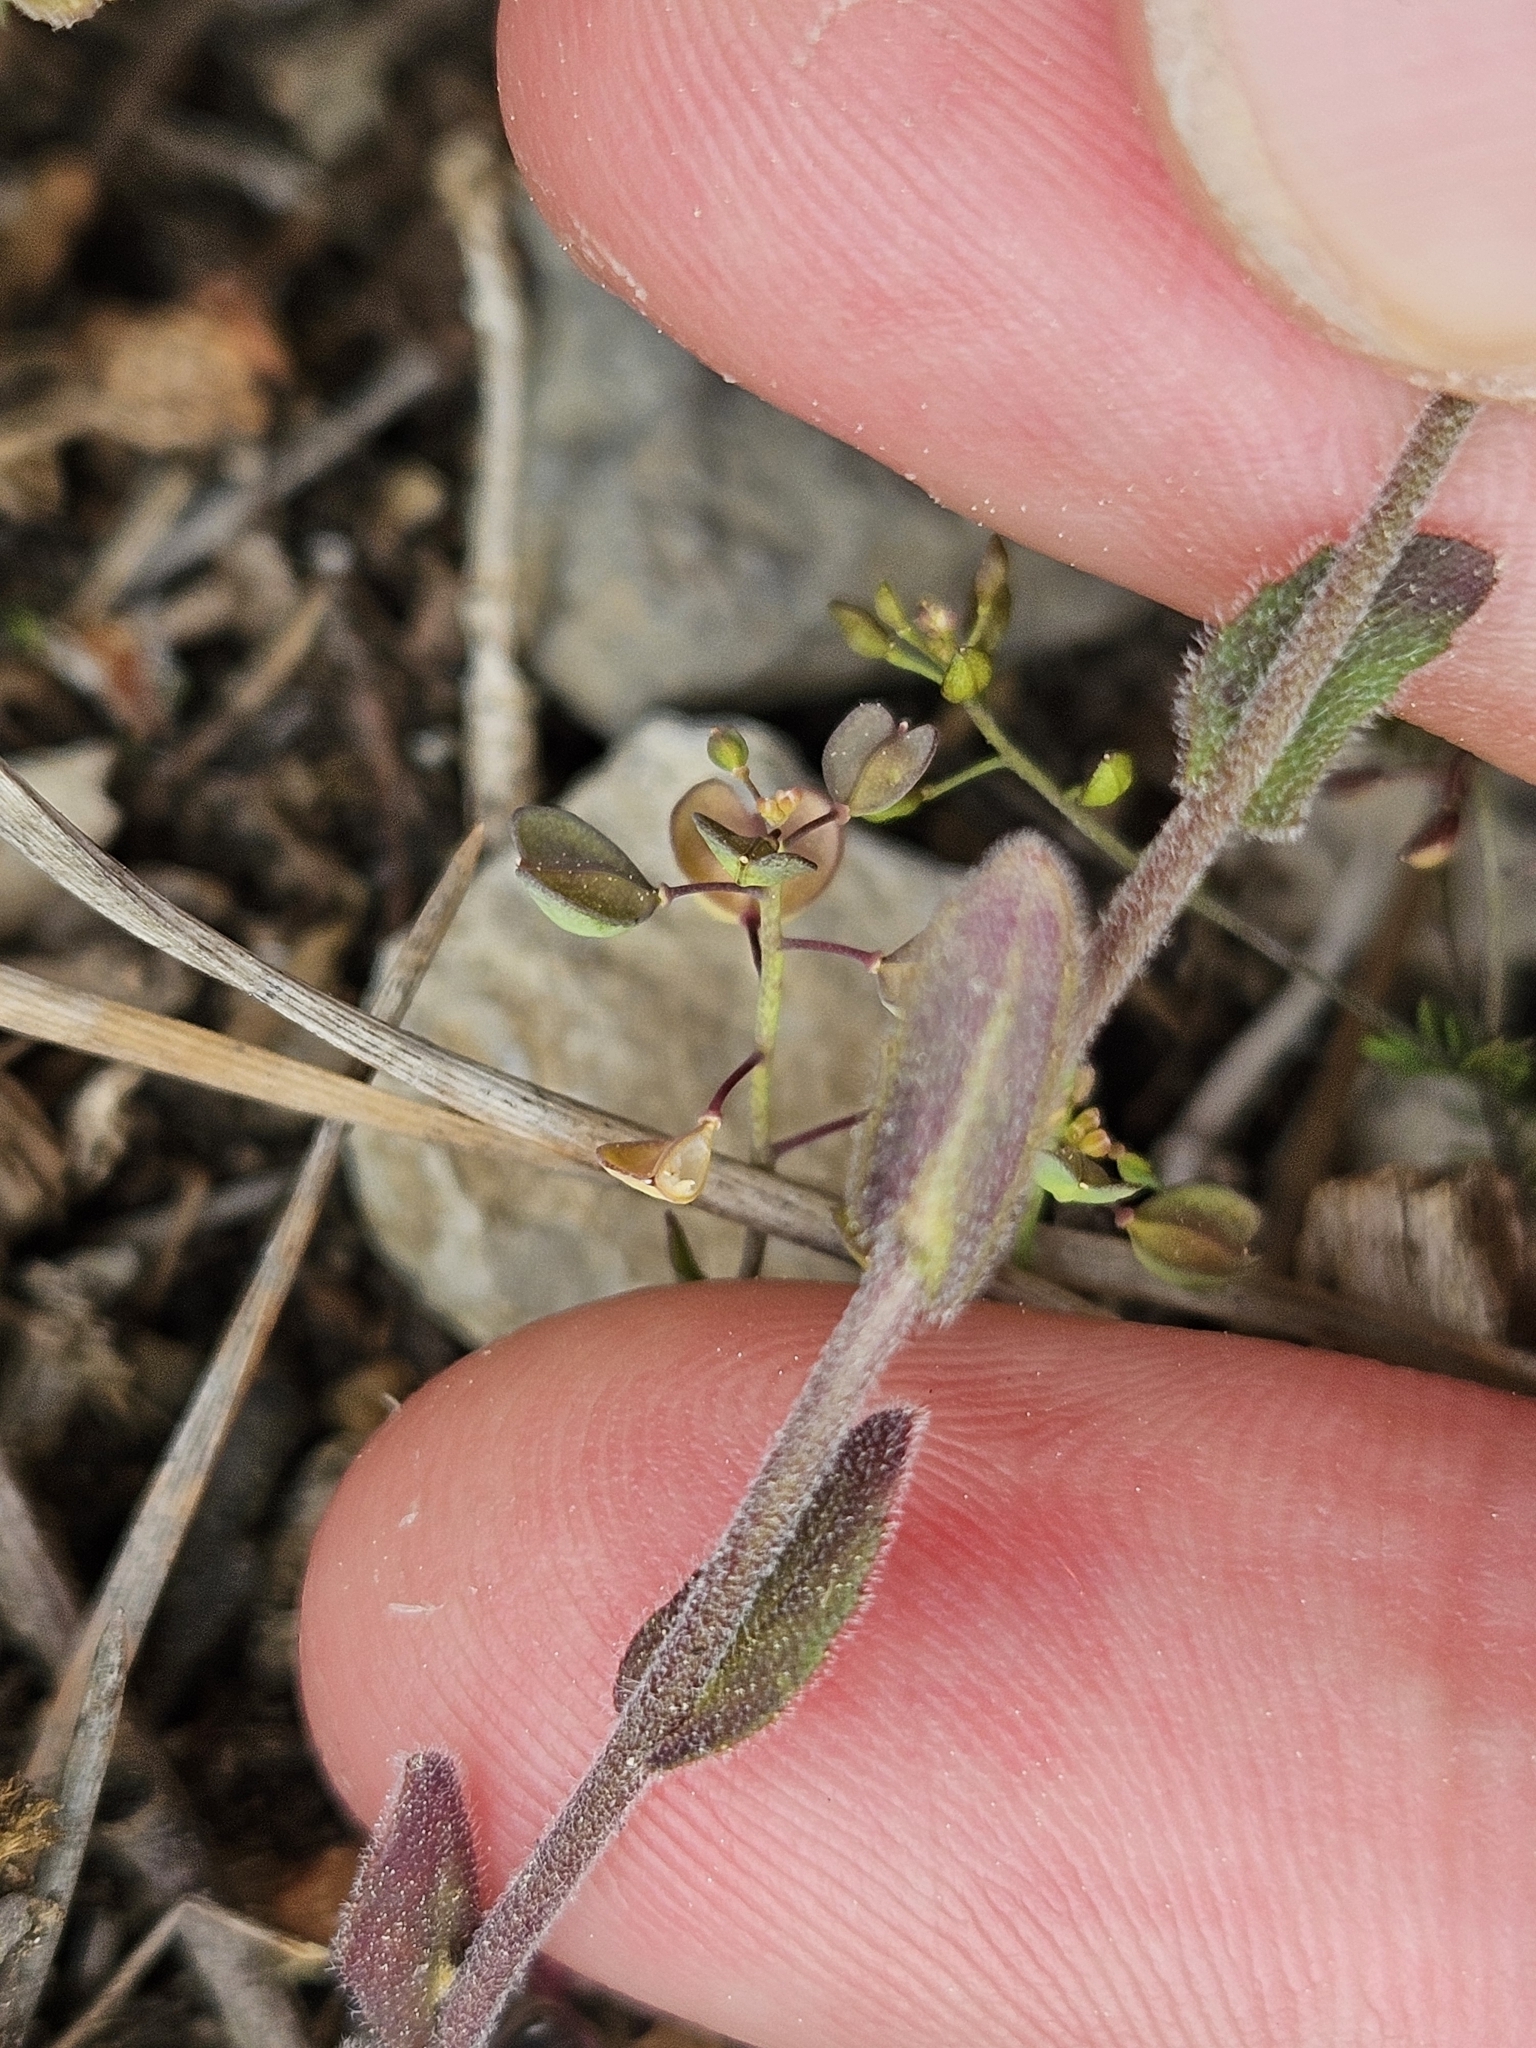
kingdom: Plantae
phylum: Tracheophyta
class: Magnoliopsida
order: Brassicales
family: Brassicaceae
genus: Arabis
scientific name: Arabis auriculata
